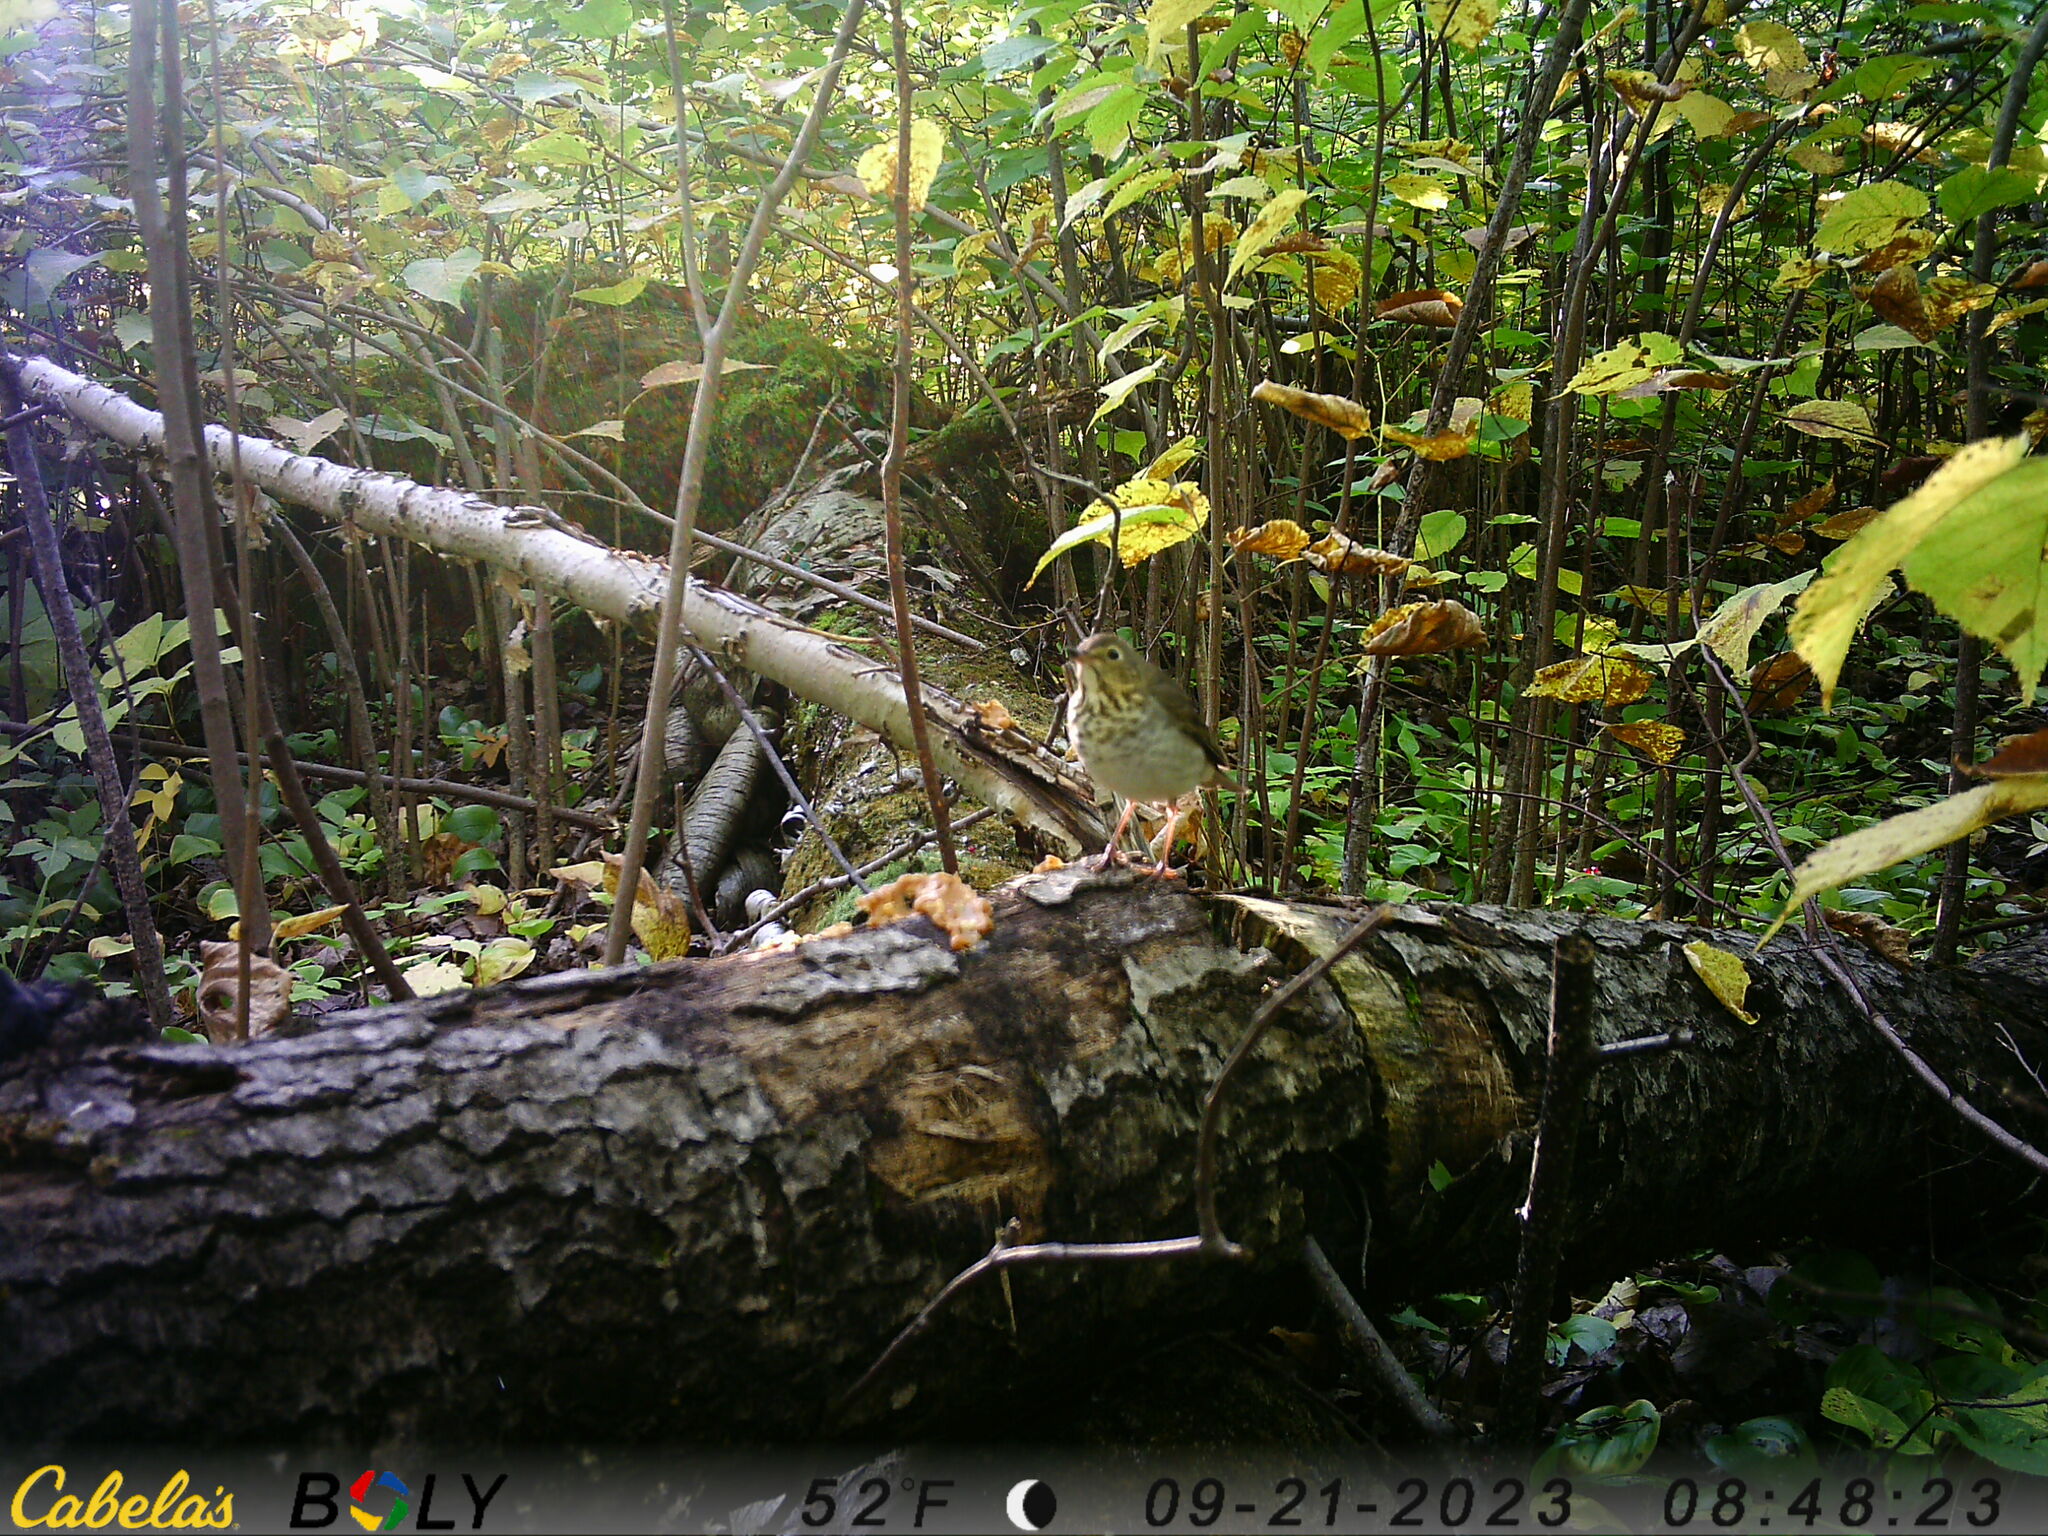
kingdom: Animalia
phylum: Chordata
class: Aves
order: Passeriformes
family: Turdidae
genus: Catharus
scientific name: Catharus ustulatus
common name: Swainson's thrush
